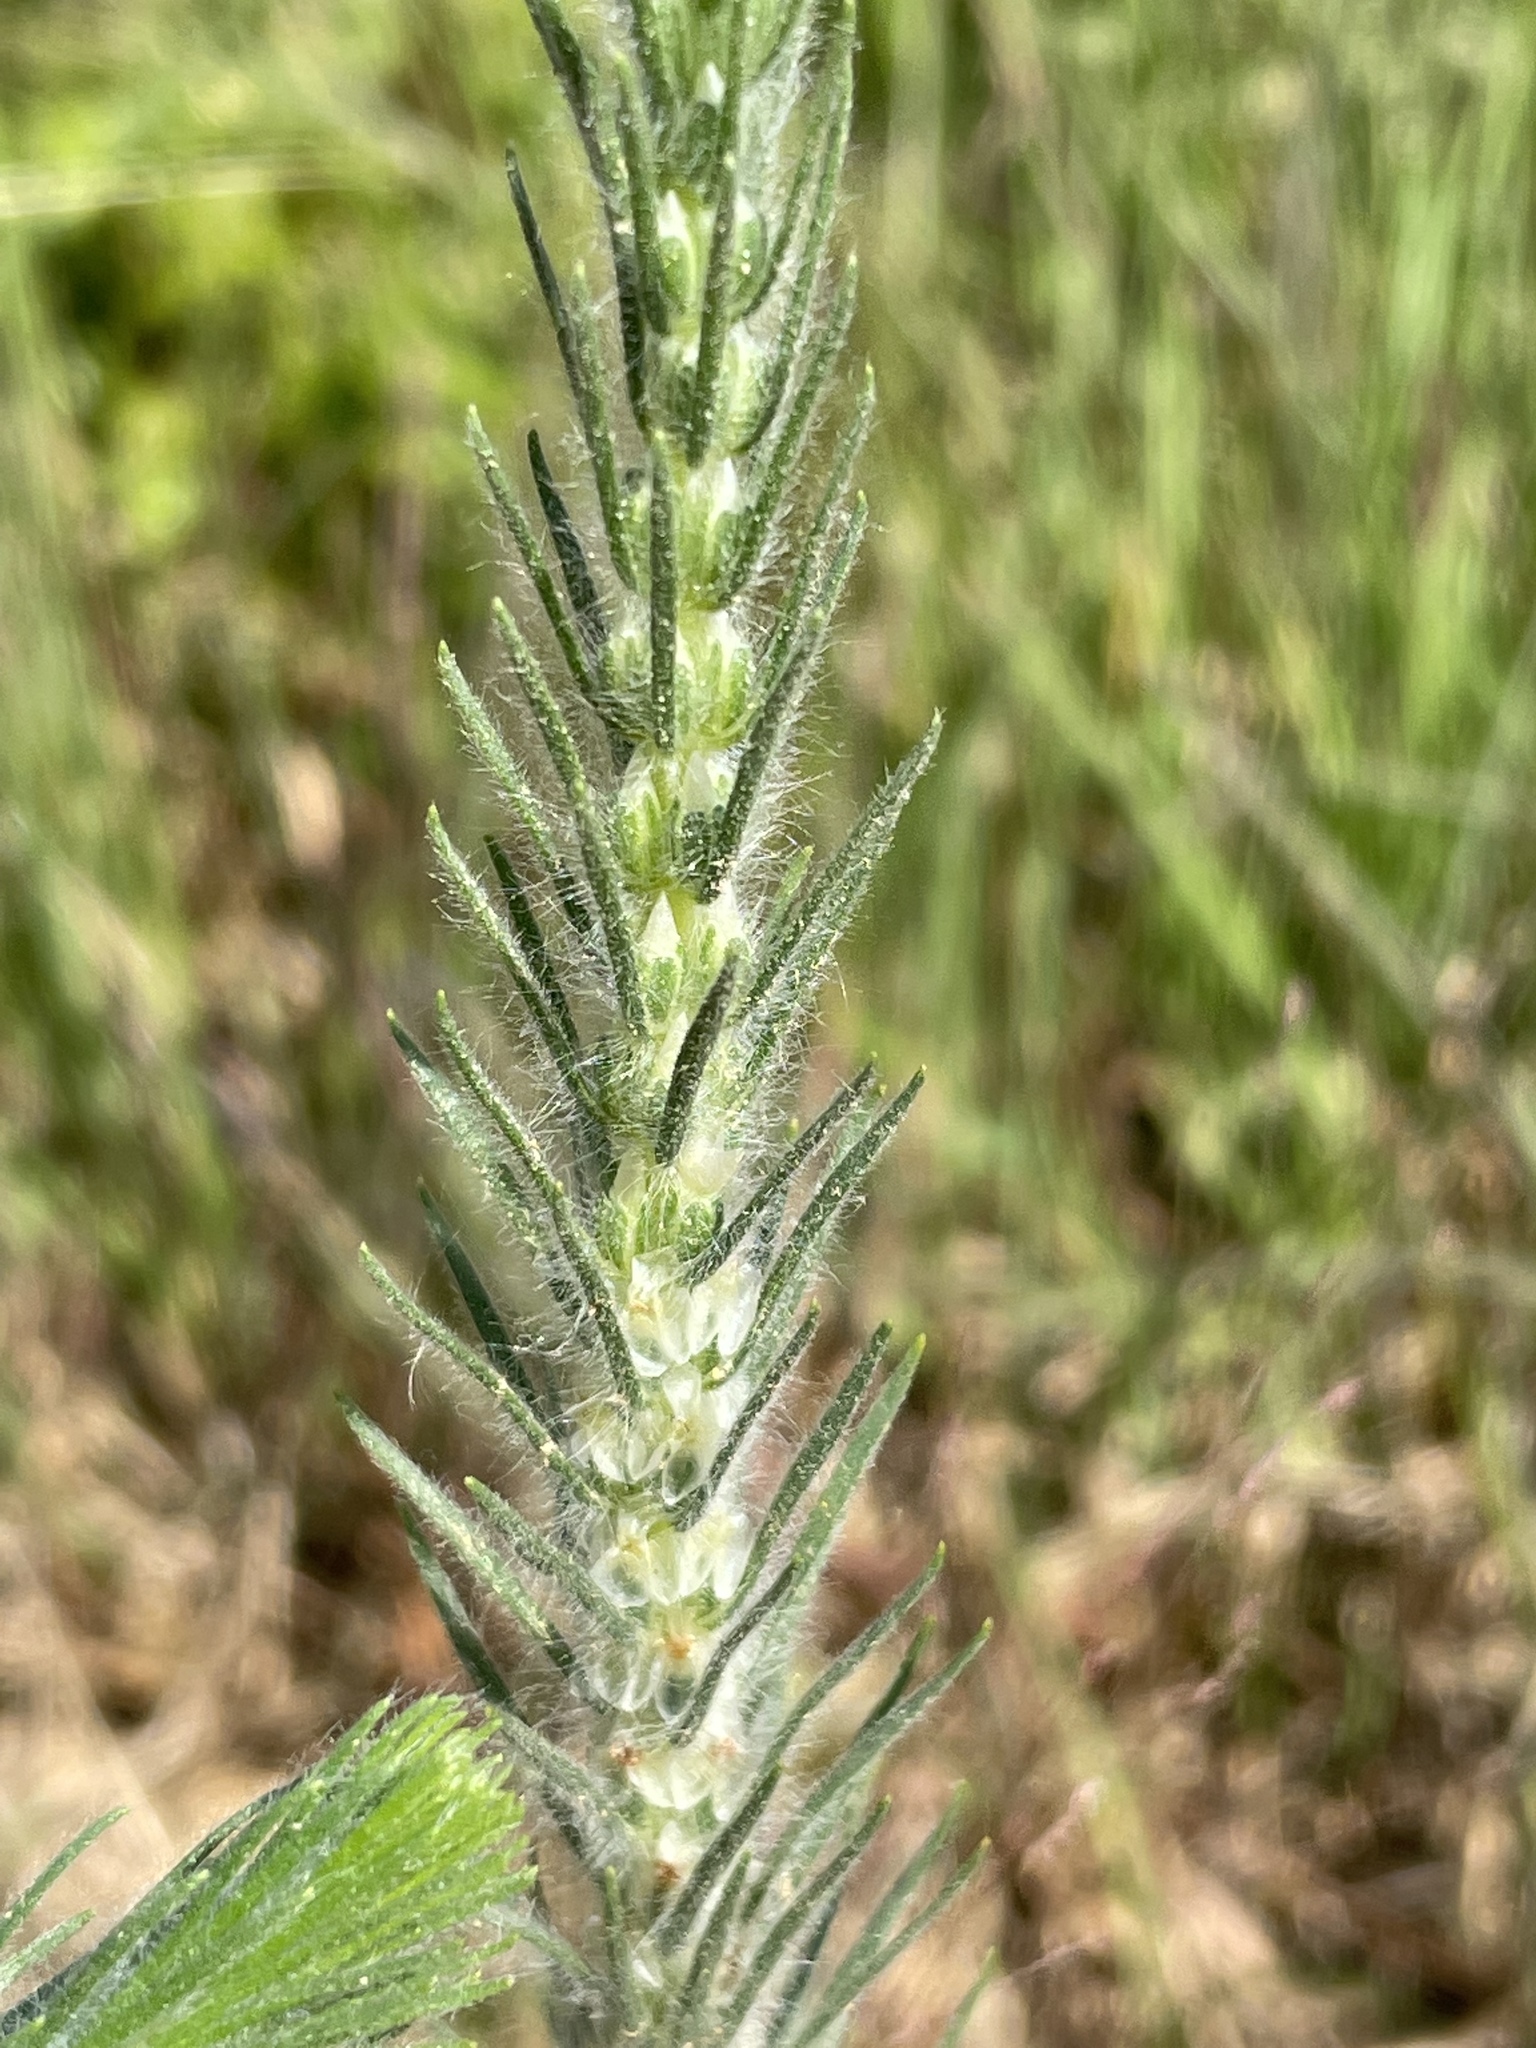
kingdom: Plantae
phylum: Tracheophyta
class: Magnoliopsida
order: Lamiales
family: Plantaginaceae
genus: Plantago
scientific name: Plantago aristata
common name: Bracted plantain
